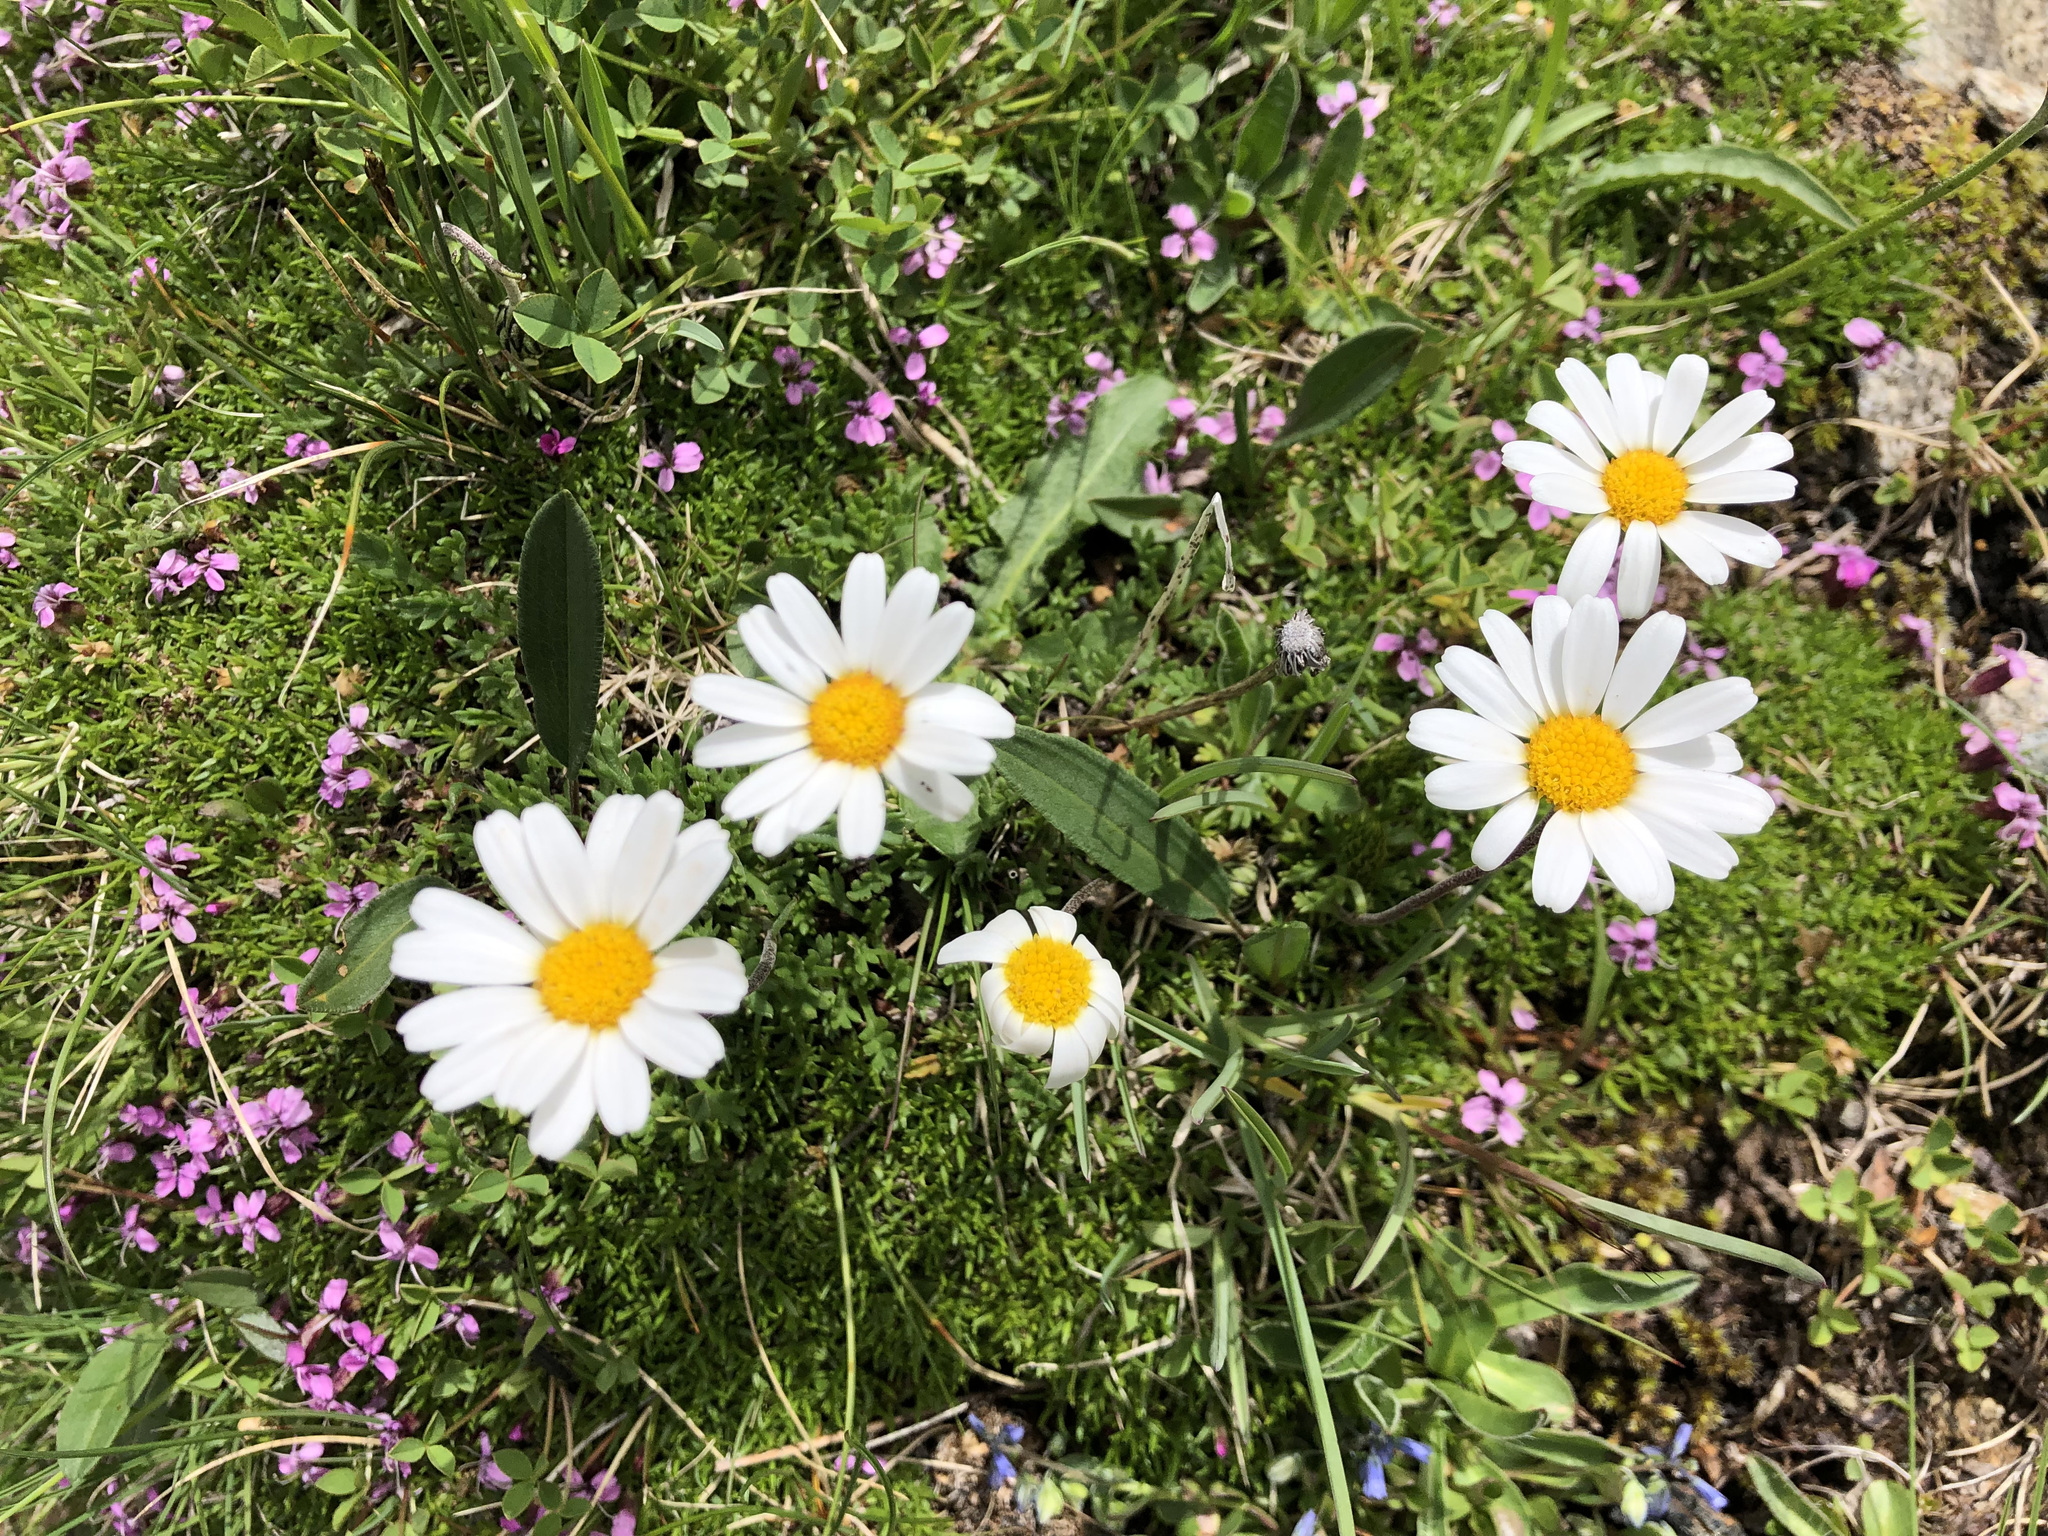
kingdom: Plantae
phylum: Tracheophyta
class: Magnoliopsida
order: Asterales
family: Asteraceae
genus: Leucanthemopsis
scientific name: Leucanthemopsis alpina
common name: Alpine moon daisy
